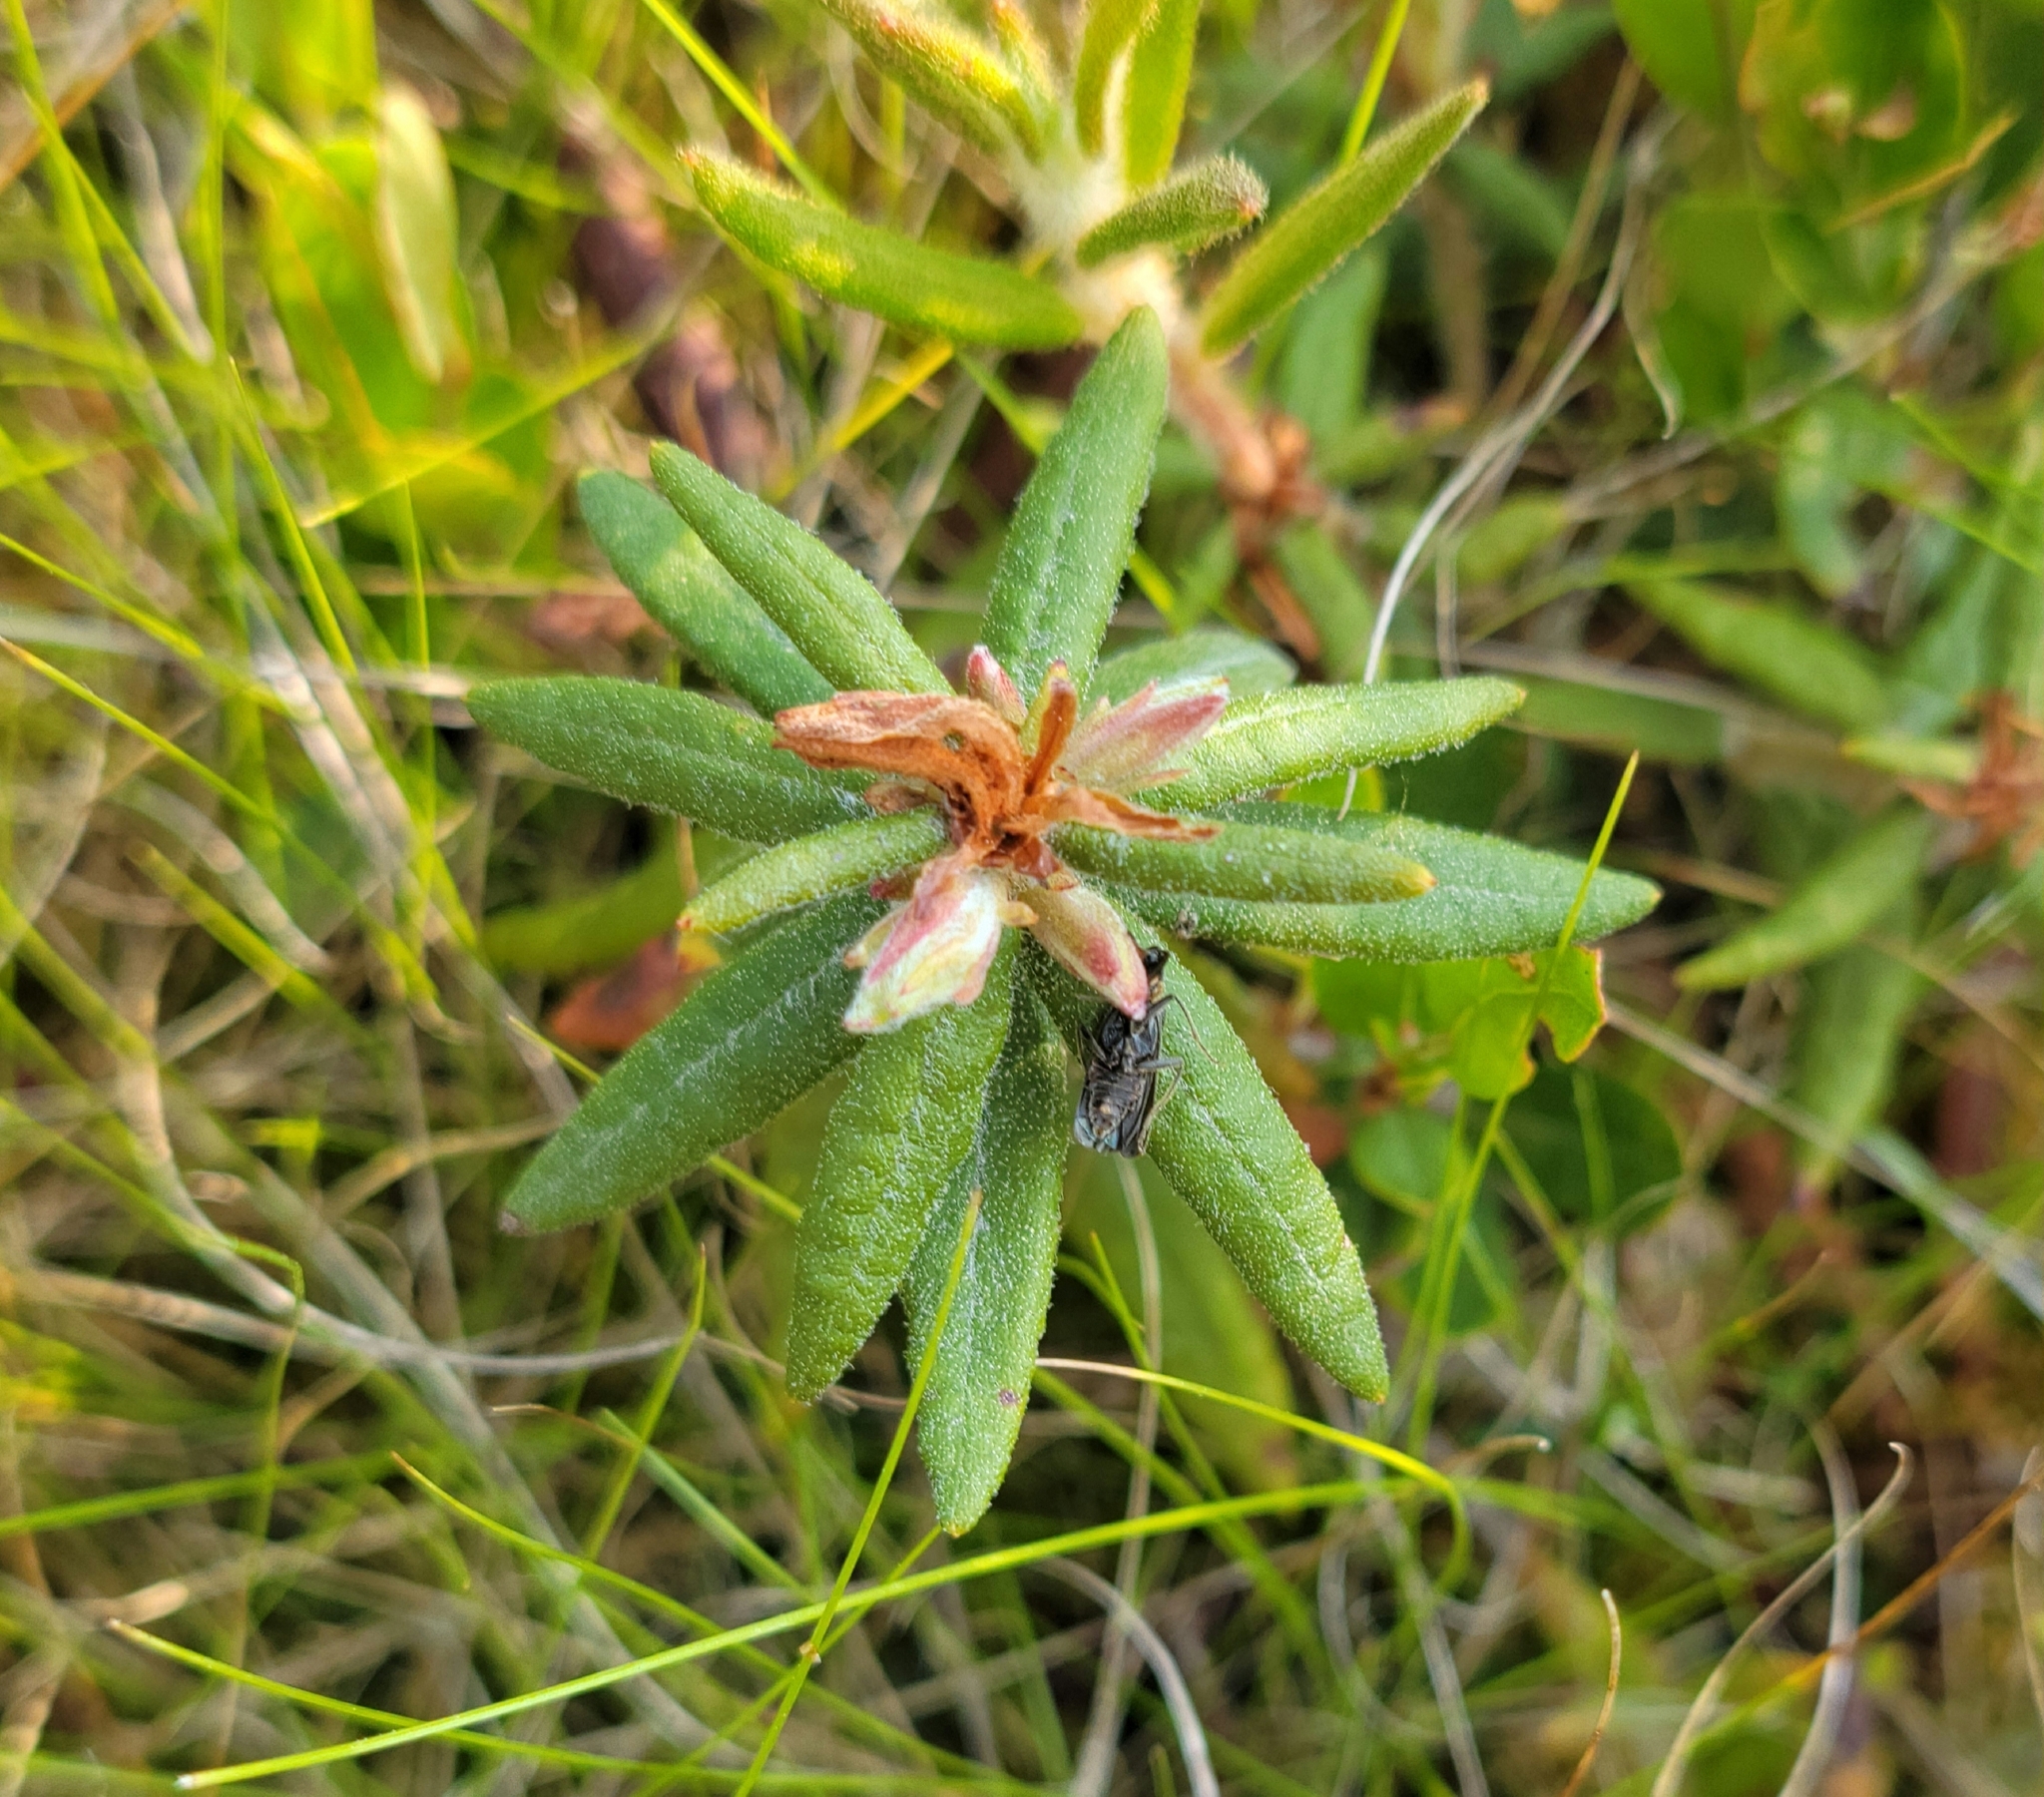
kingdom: Plantae
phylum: Tracheophyta
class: Magnoliopsida
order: Ericales
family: Ericaceae
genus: Rhododendron
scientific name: Rhododendron groenlandicum
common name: Bog labrador tea
